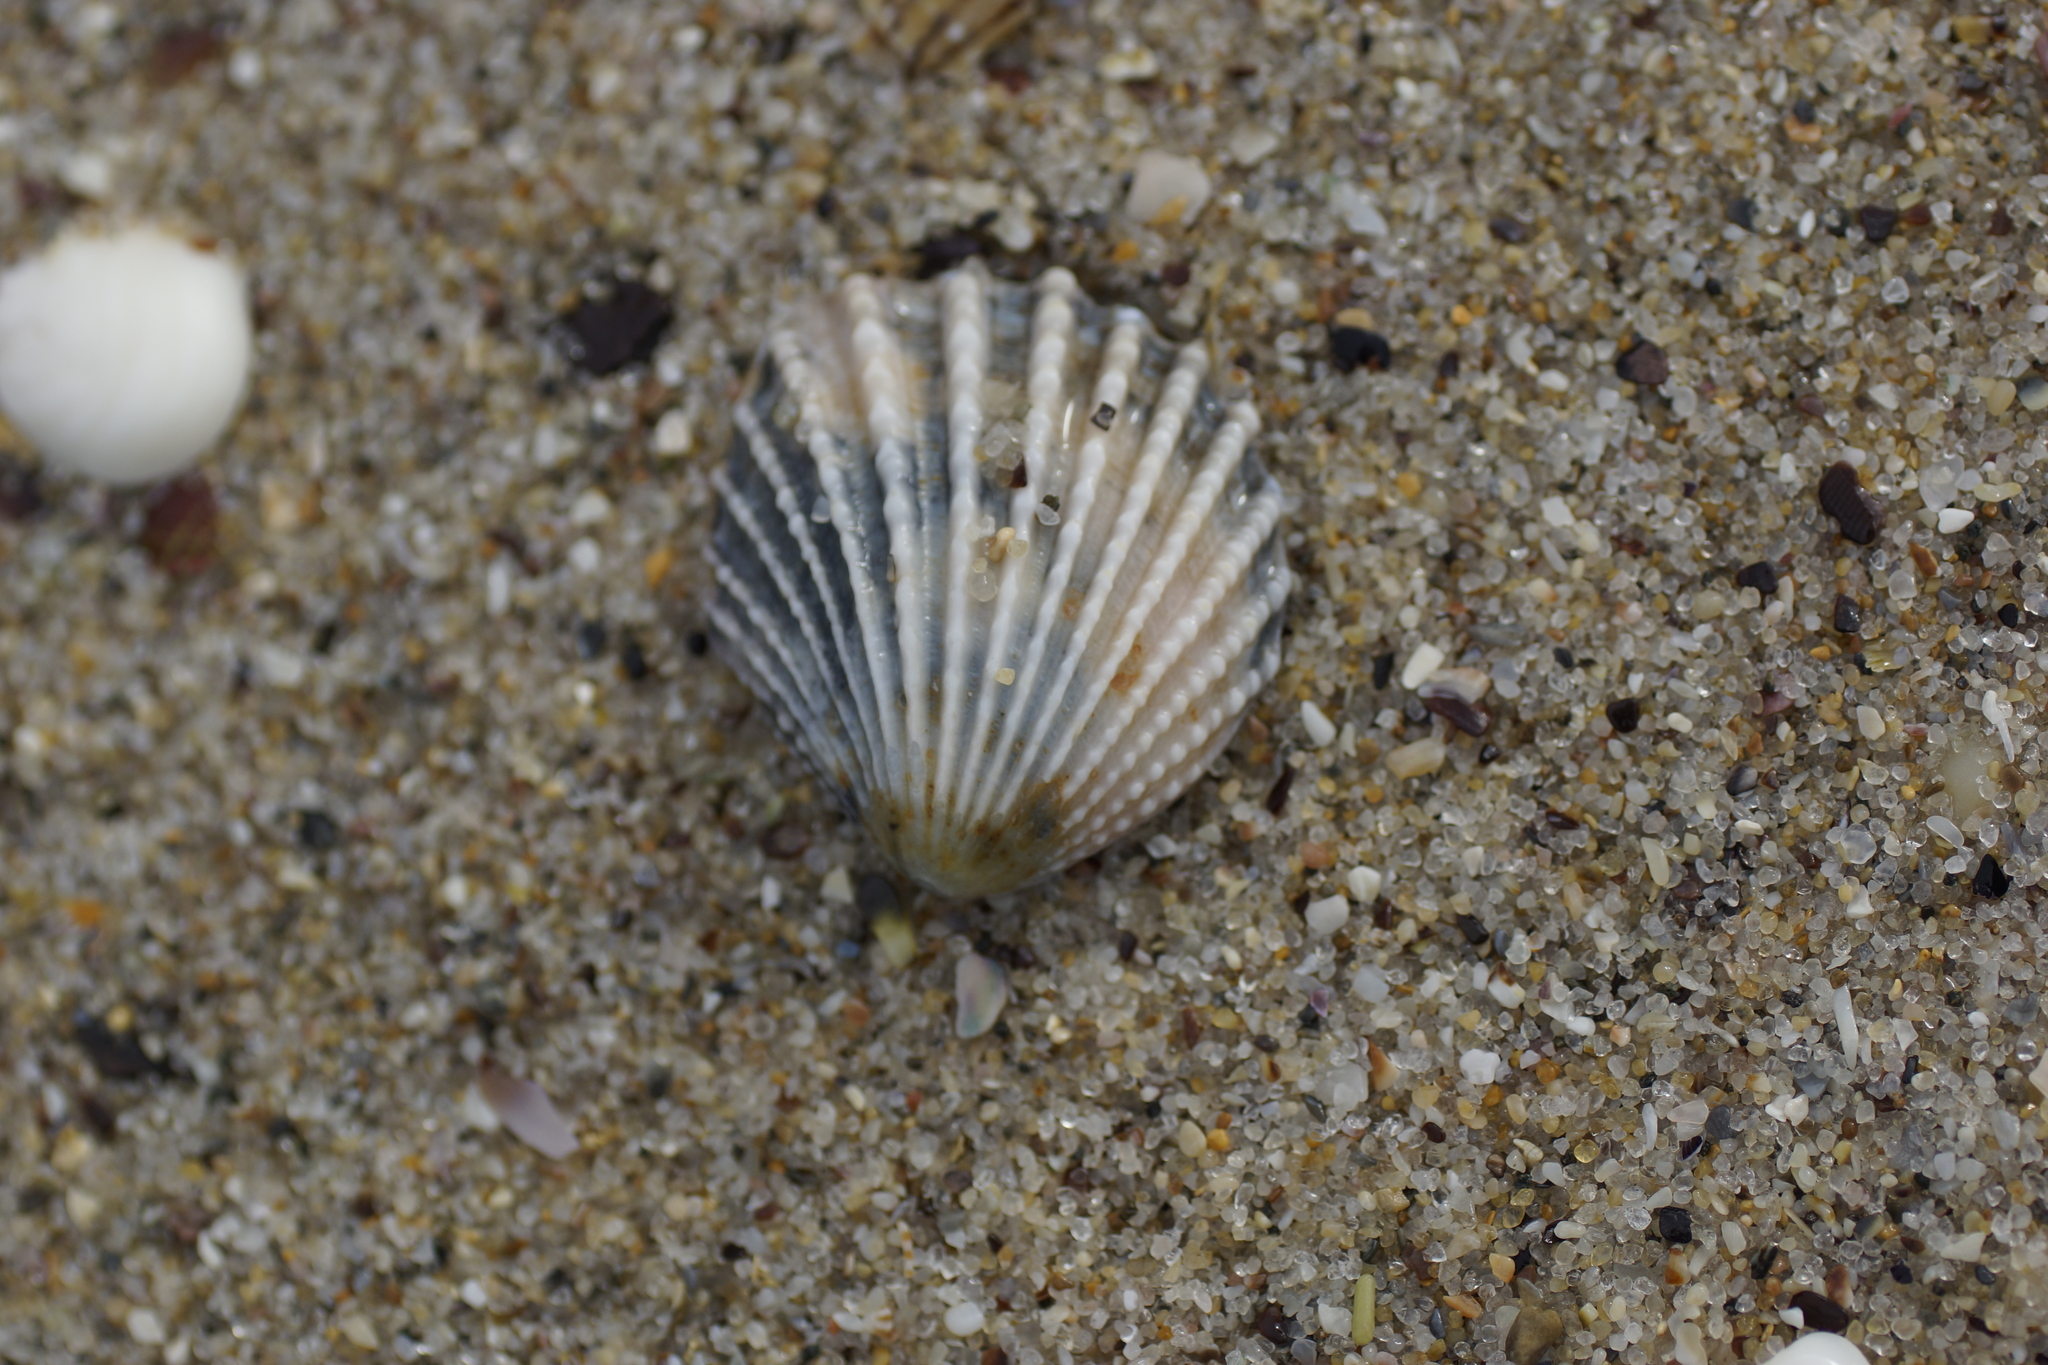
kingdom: Animalia
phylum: Mollusca
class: Bivalvia
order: Trigoniida
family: Trigoniidae
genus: Neotrigonia
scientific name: Neotrigonia margaritacea
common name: Brooch clam
